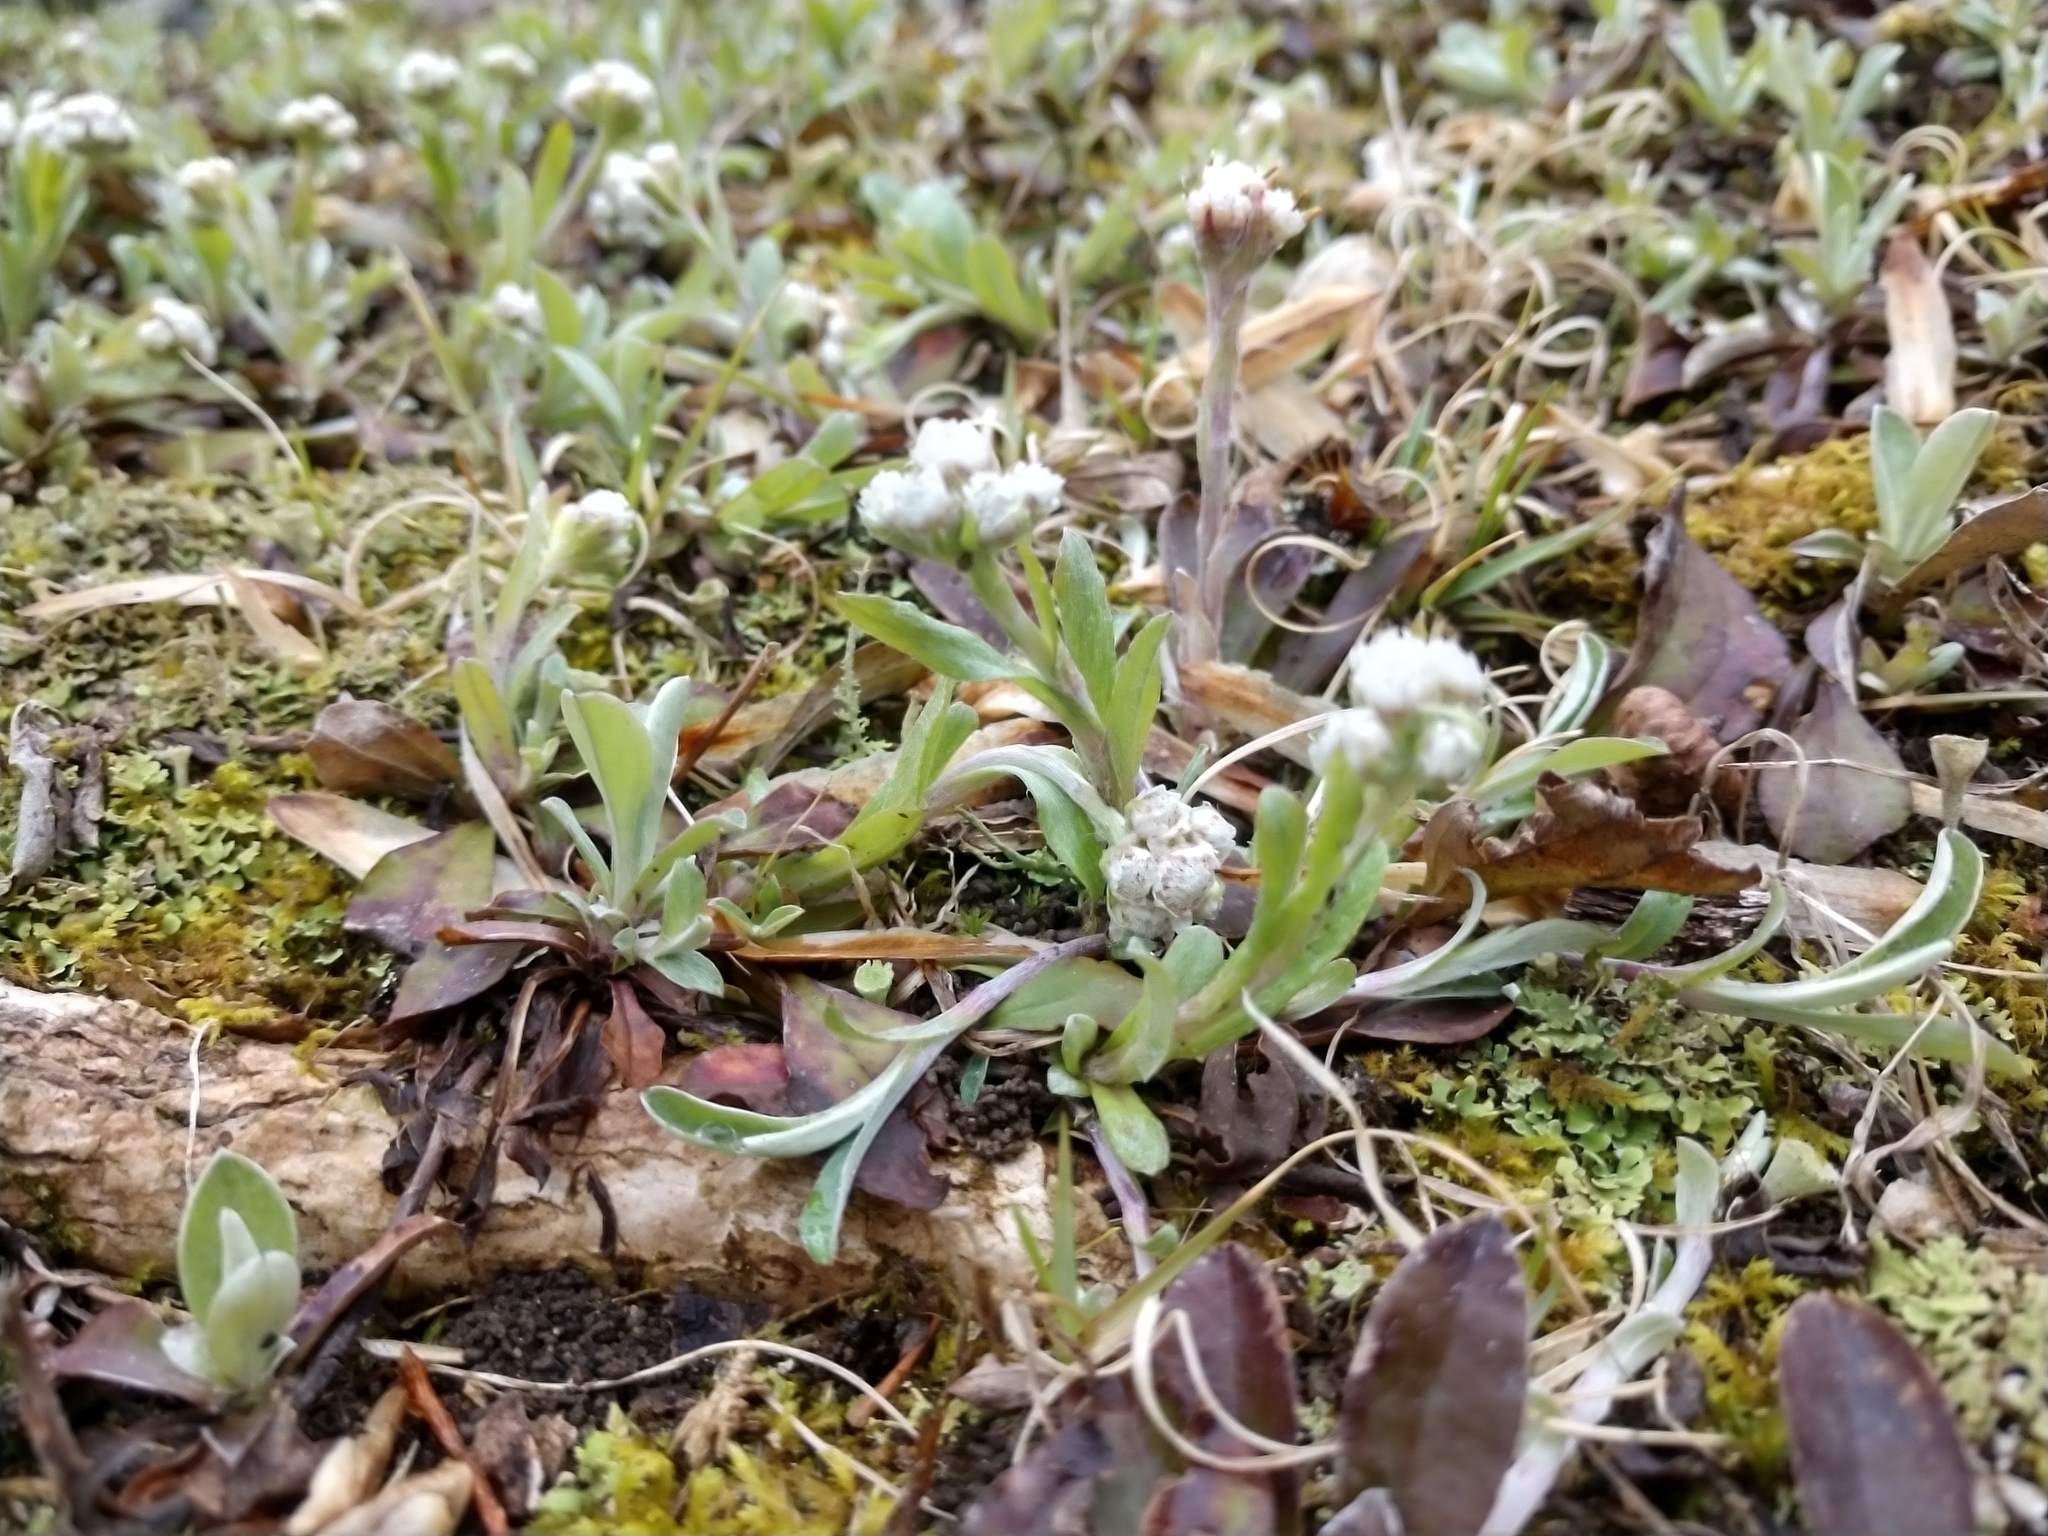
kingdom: Plantae
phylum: Tracheophyta
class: Magnoliopsida
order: Asterales
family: Asteraceae
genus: Antennaria
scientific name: Antennaria neglecta
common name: Field pussytoes
